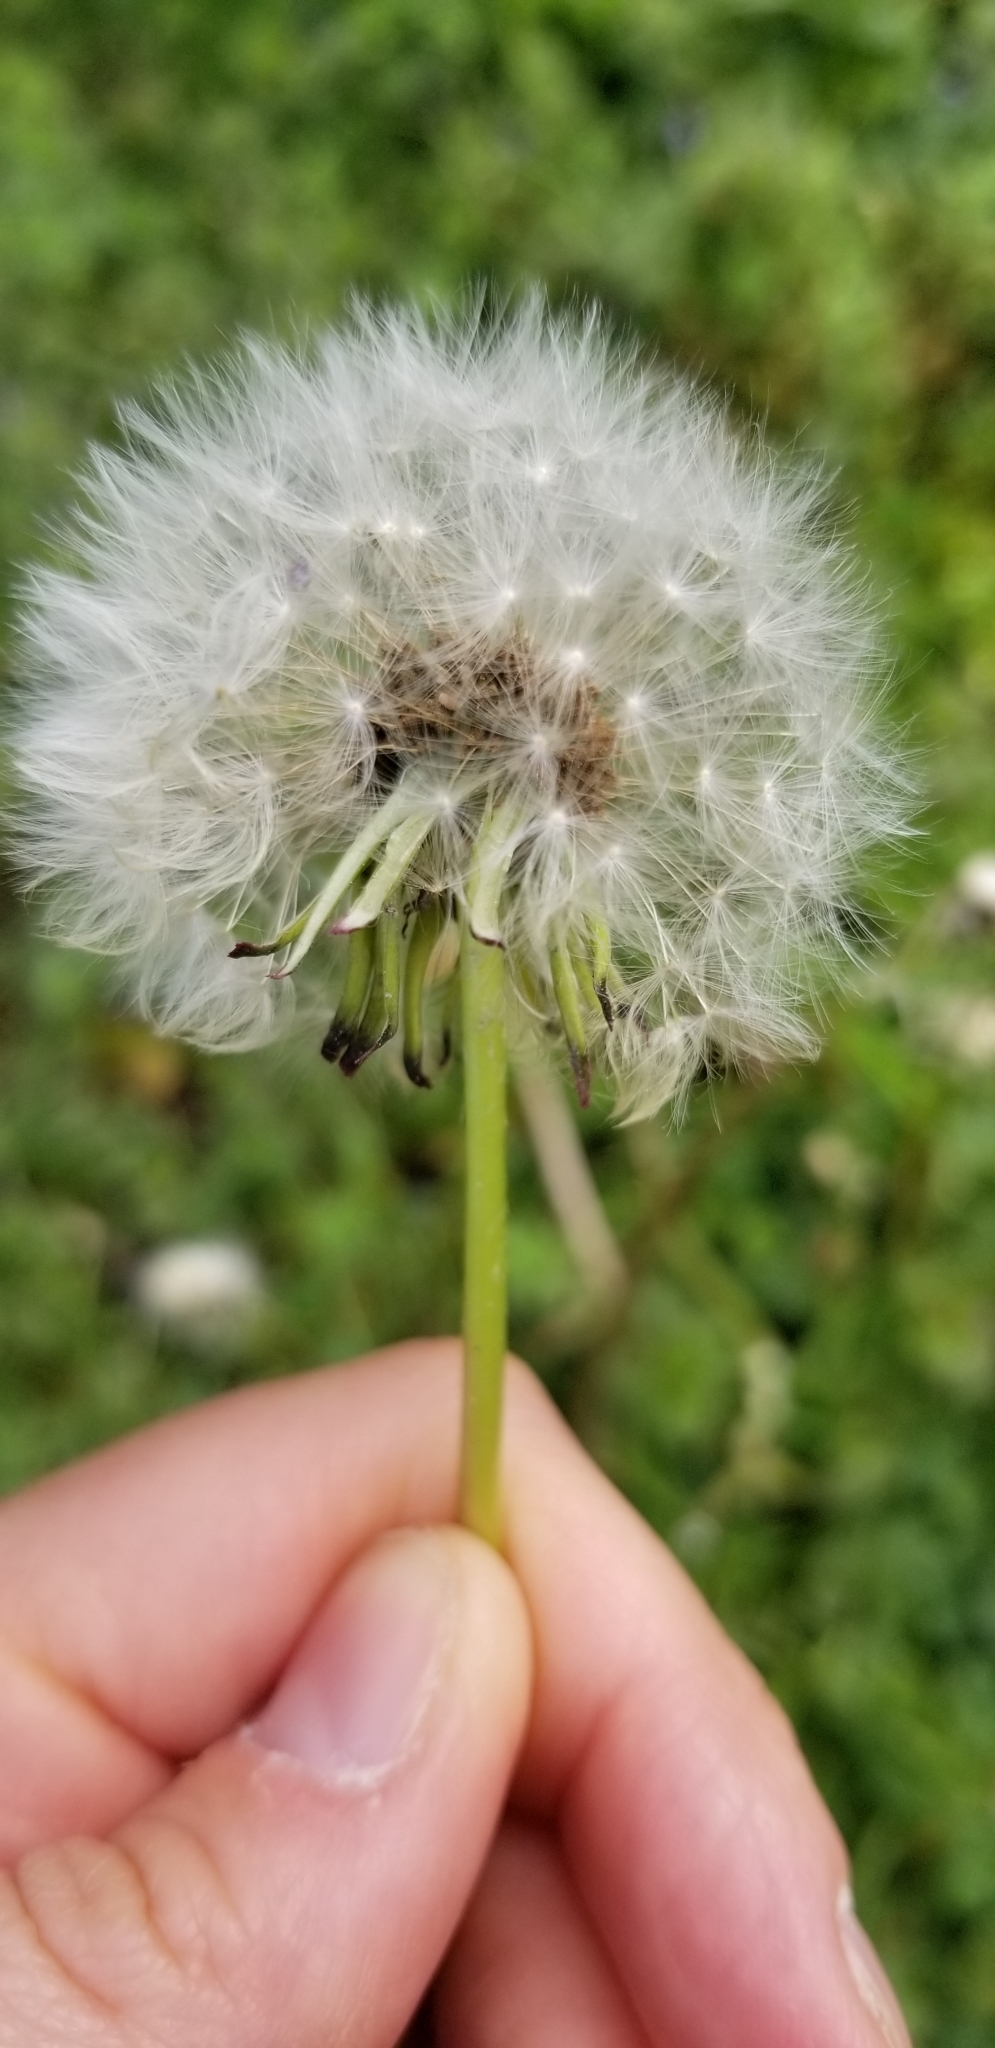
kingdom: Plantae
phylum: Tracheophyta
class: Magnoliopsida
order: Asterales
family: Asteraceae
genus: Taraxacum
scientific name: Taraxacum officinale
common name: Common dandelion
